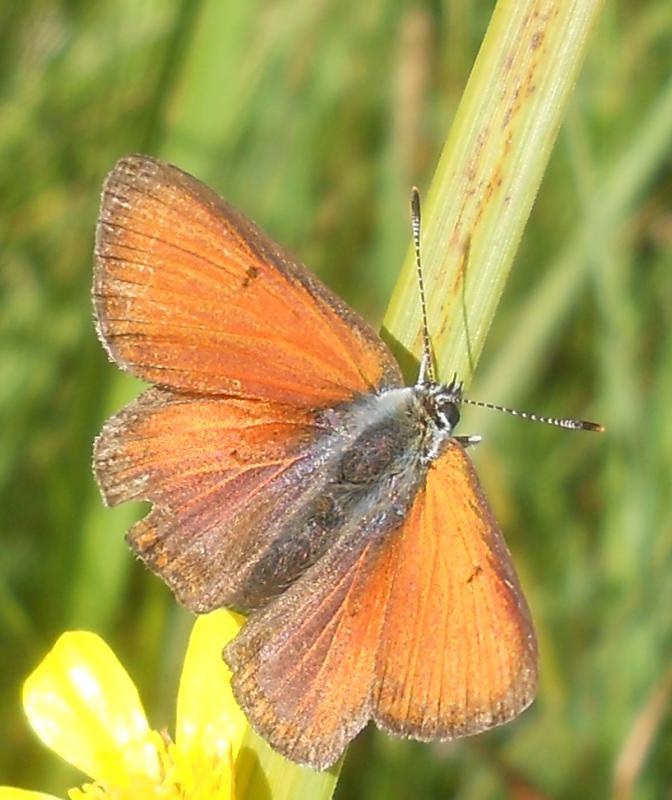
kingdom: Animalia
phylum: Arthropoda
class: Insecta
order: Lepidoptera
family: Lycaenidae
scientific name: Lycaenidae
